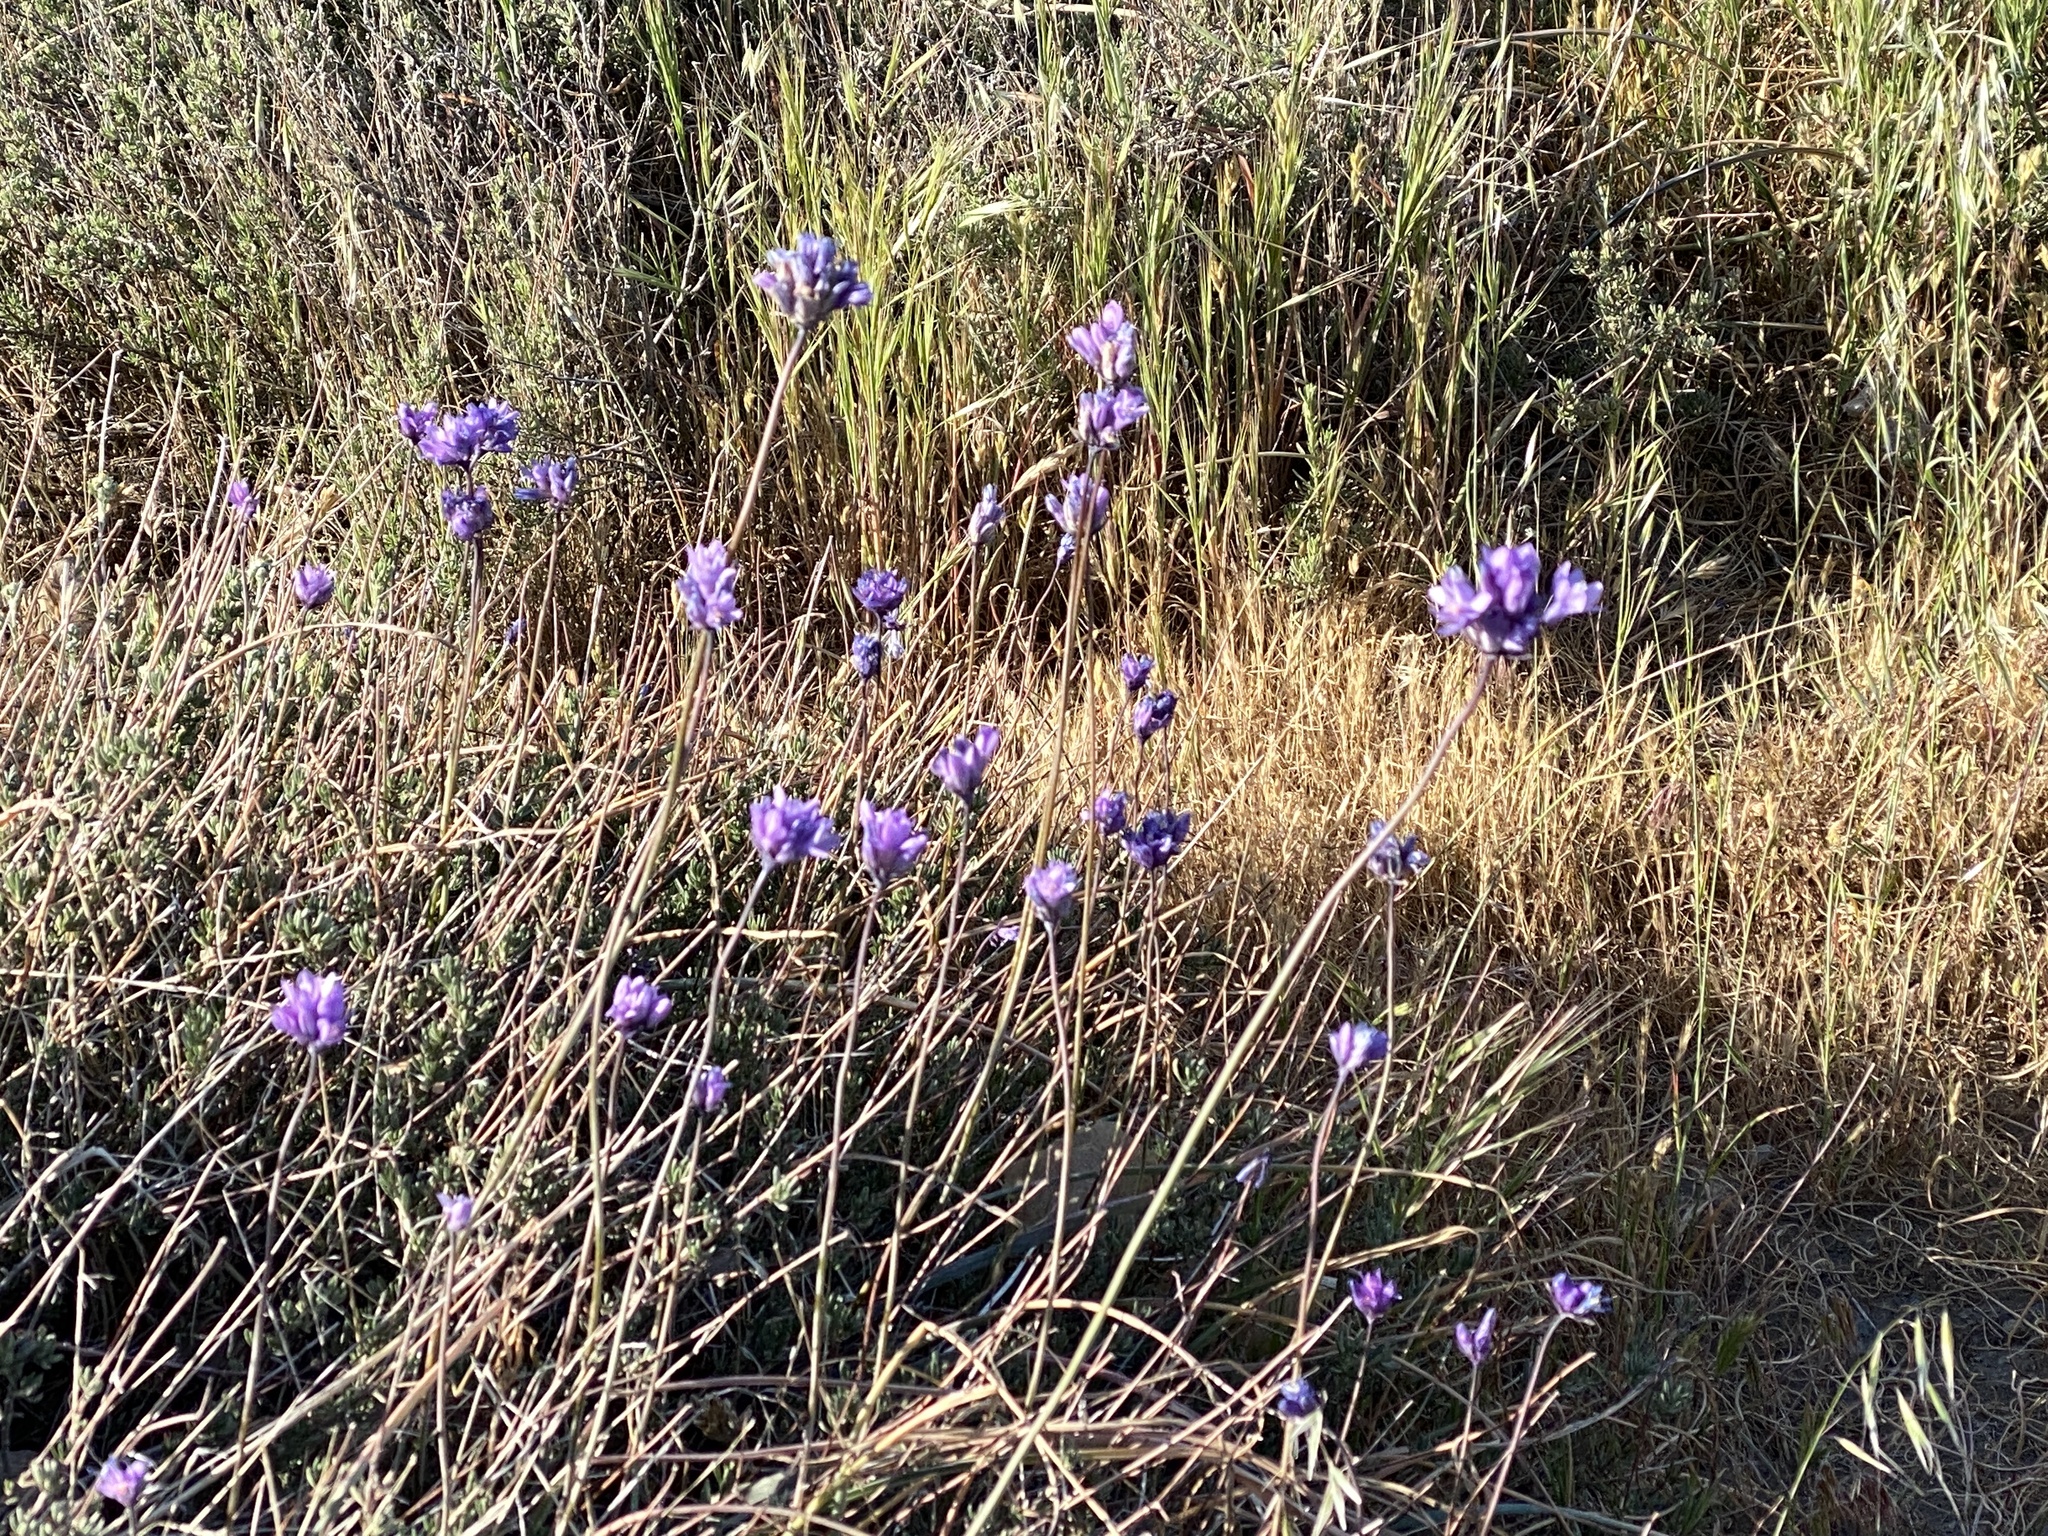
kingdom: Plantae
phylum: Tracheophyta
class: Liliopsida
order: Asparagales
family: Asparagaceae
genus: Dipterostemon
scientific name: Dipterostemon capitatus
